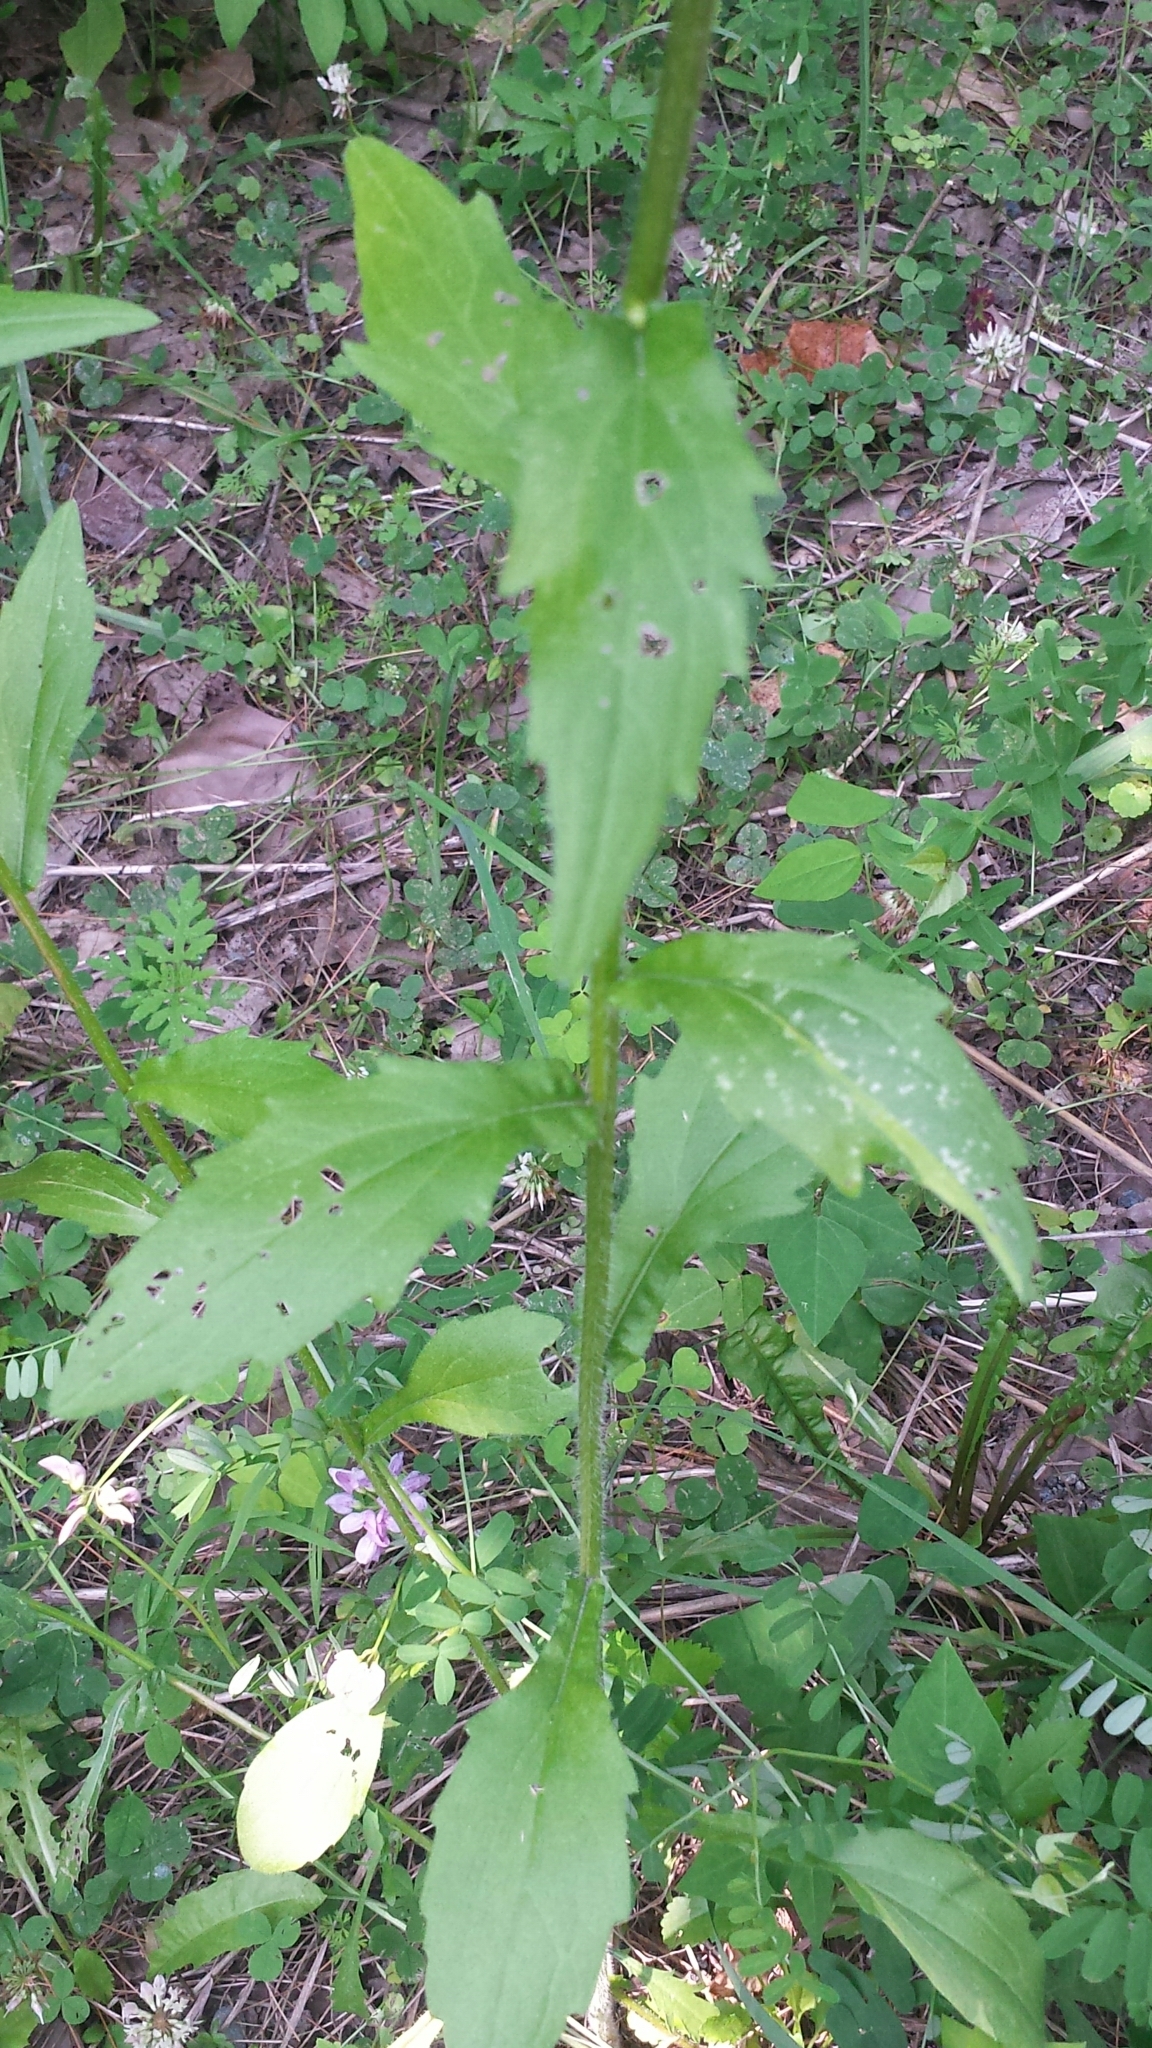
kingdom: Plantae
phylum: Tracheophyta
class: Magnoliopsida
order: Asterales
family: Asteraceae
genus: Erigeron
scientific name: Erigeron annuus
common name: Tall fleabane
